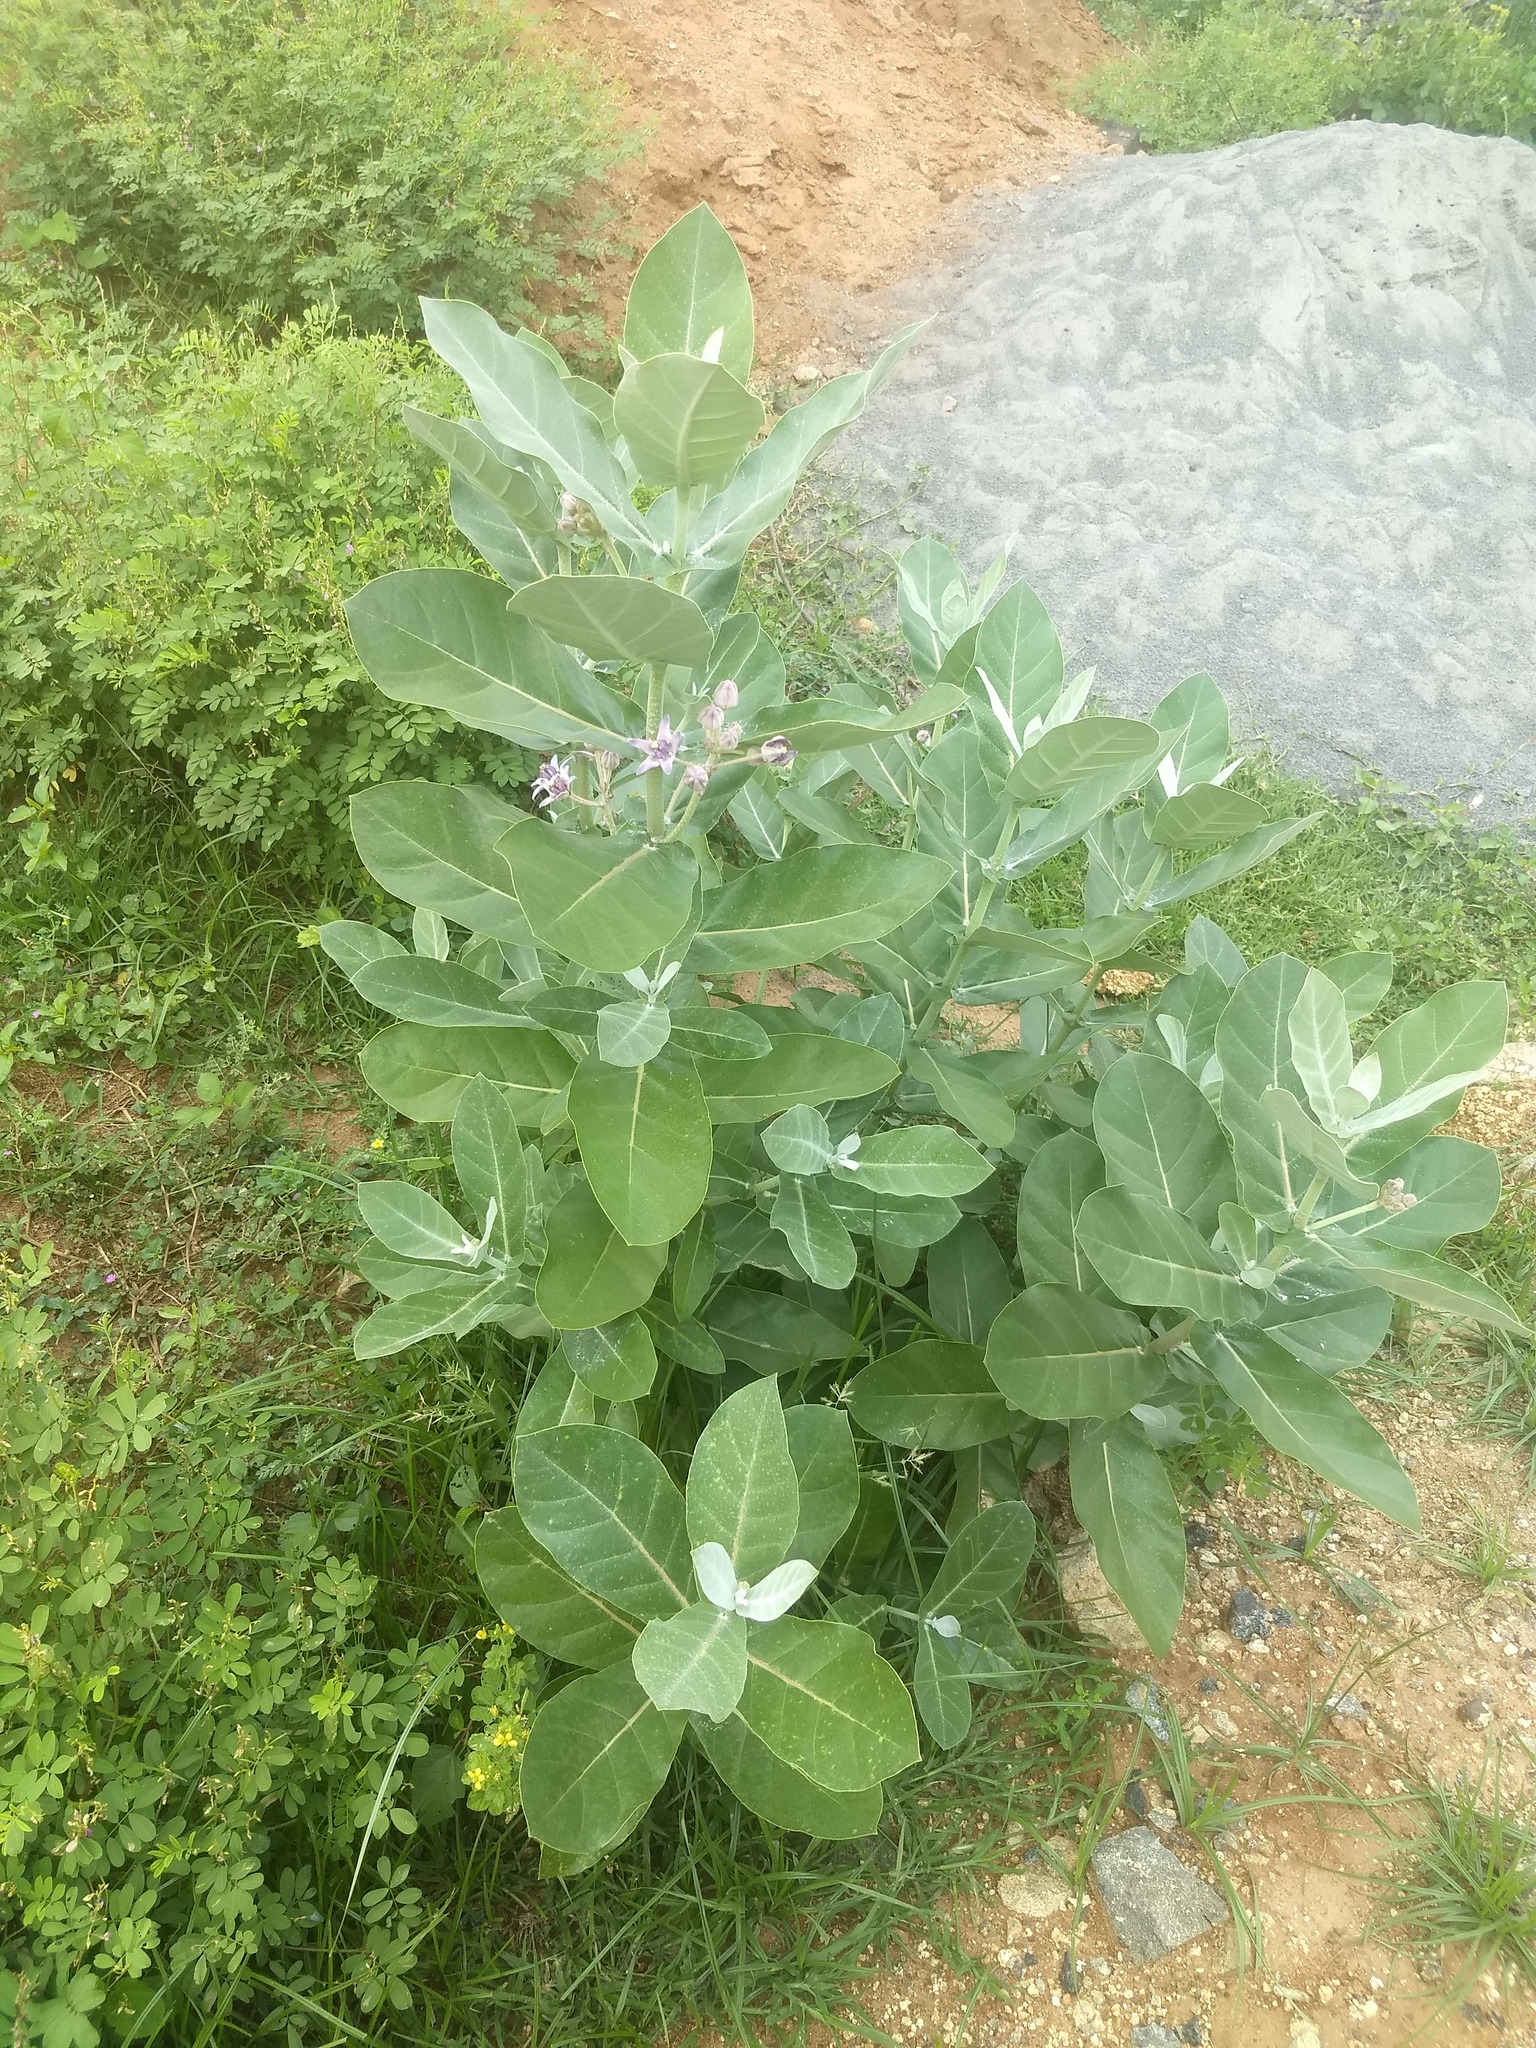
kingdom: Plantae
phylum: Tracheophyta
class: Magnoliopsida
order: Gentianales
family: Apocynaceae
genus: Calotropis
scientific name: Calotropis gigantea
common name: Crown flower
